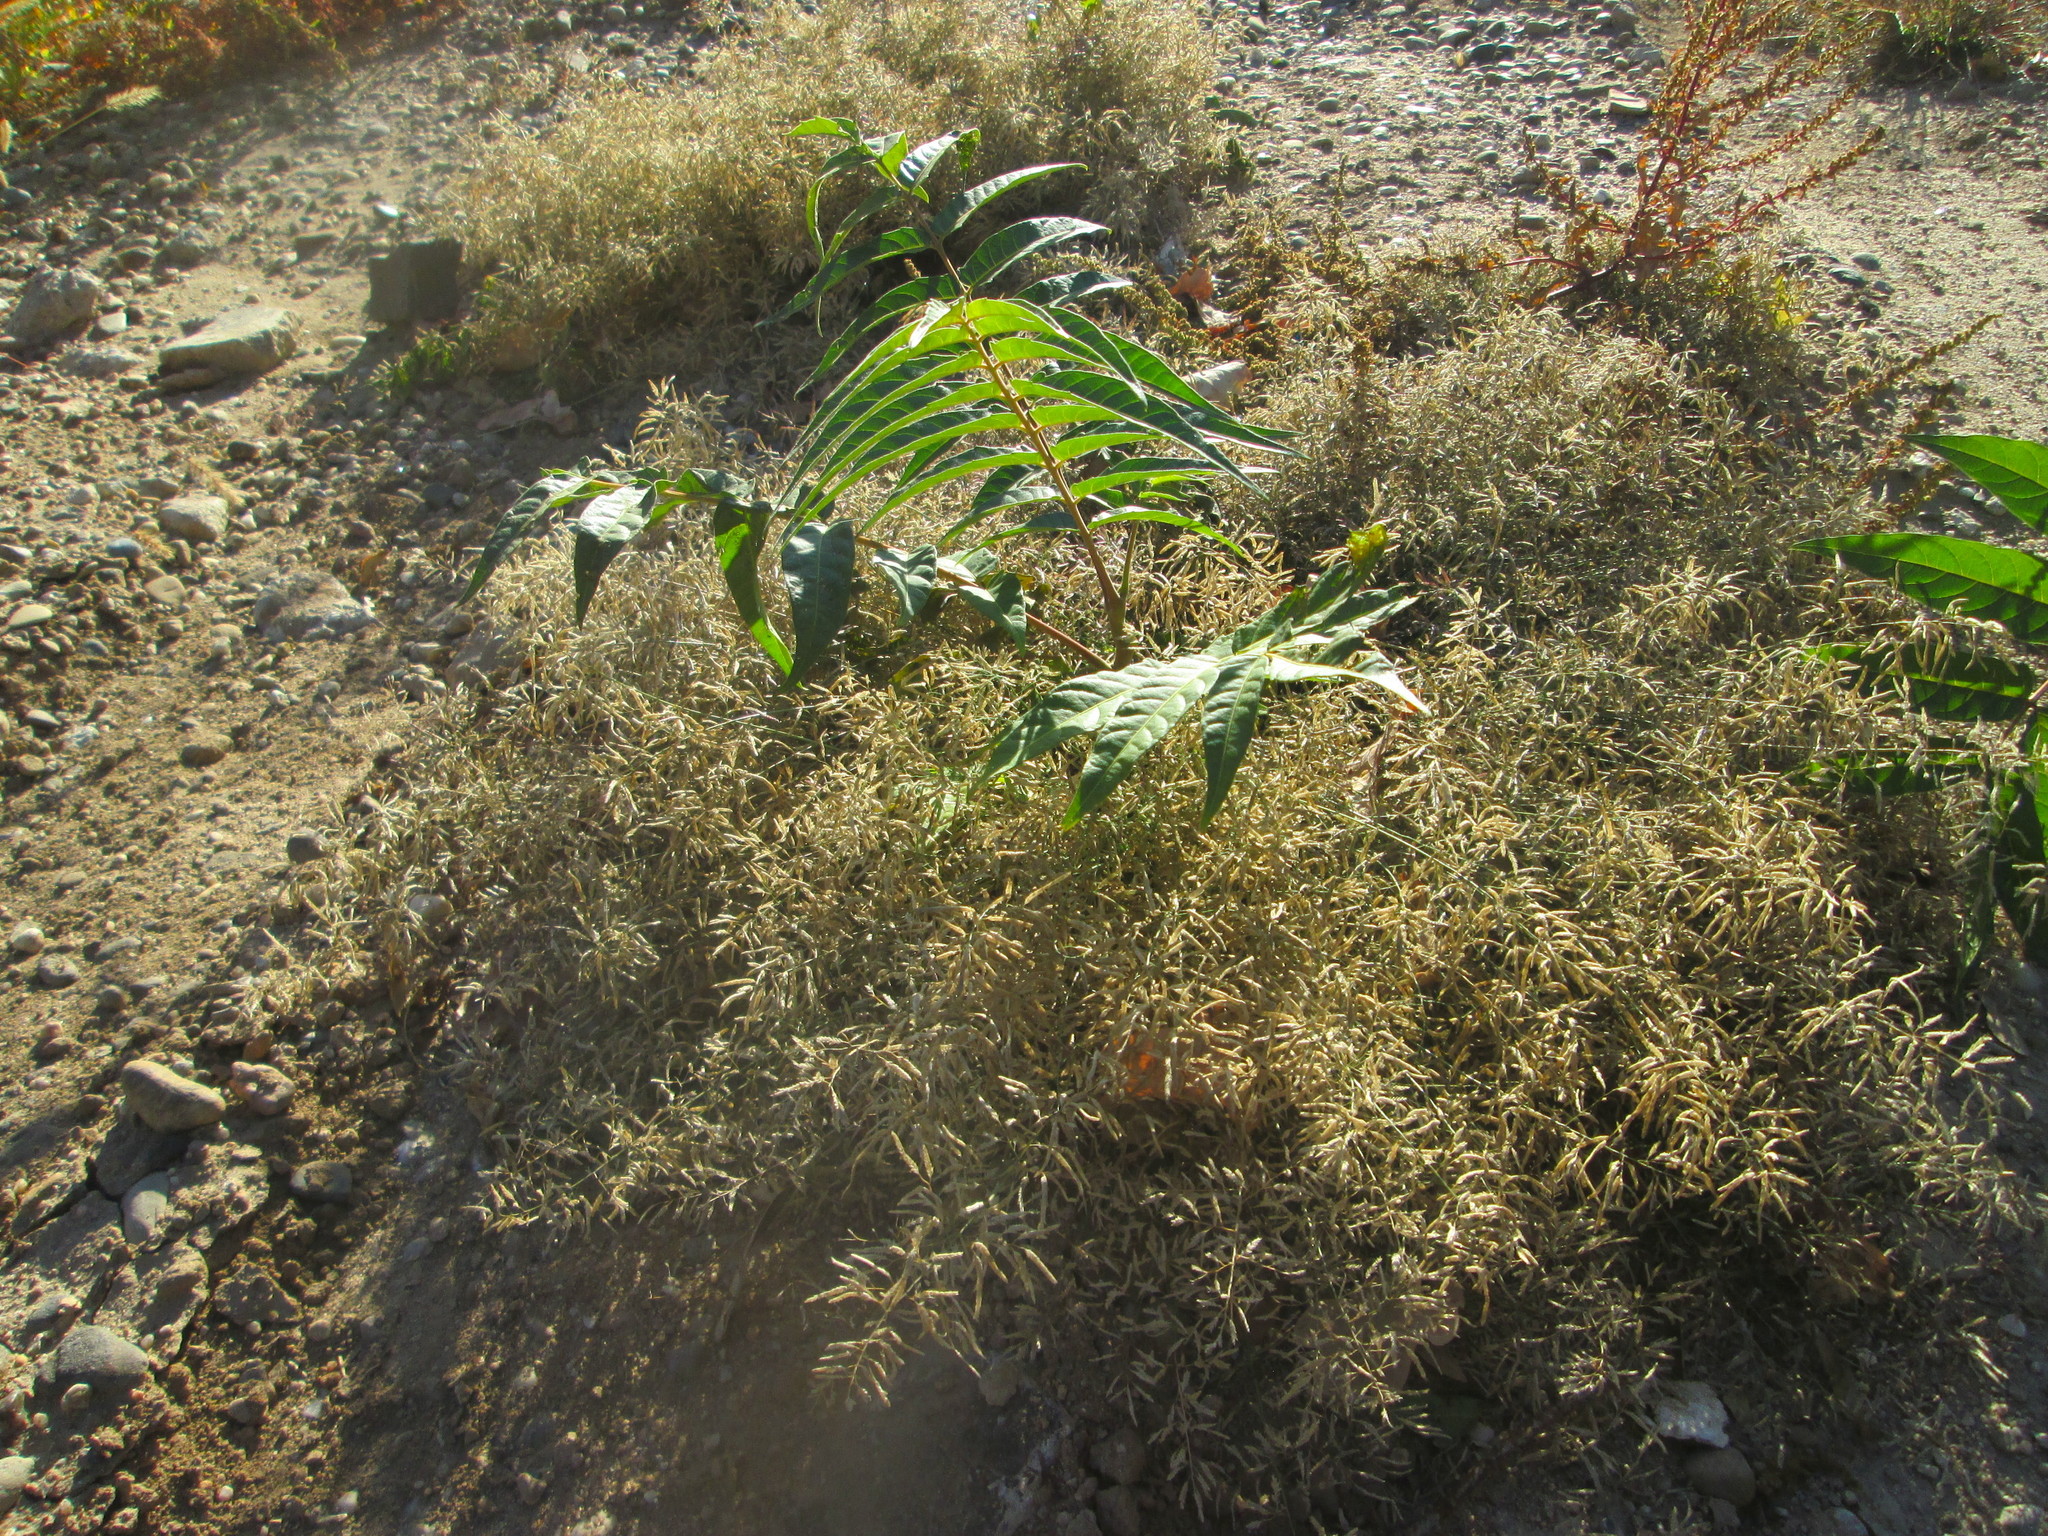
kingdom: Plantae
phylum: Tracheophyta
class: Magnoliopsida
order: Sapindales
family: Simaroubaceae
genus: Ailanthus
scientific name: Ailanthus altissima
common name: Tree-of-heaven
